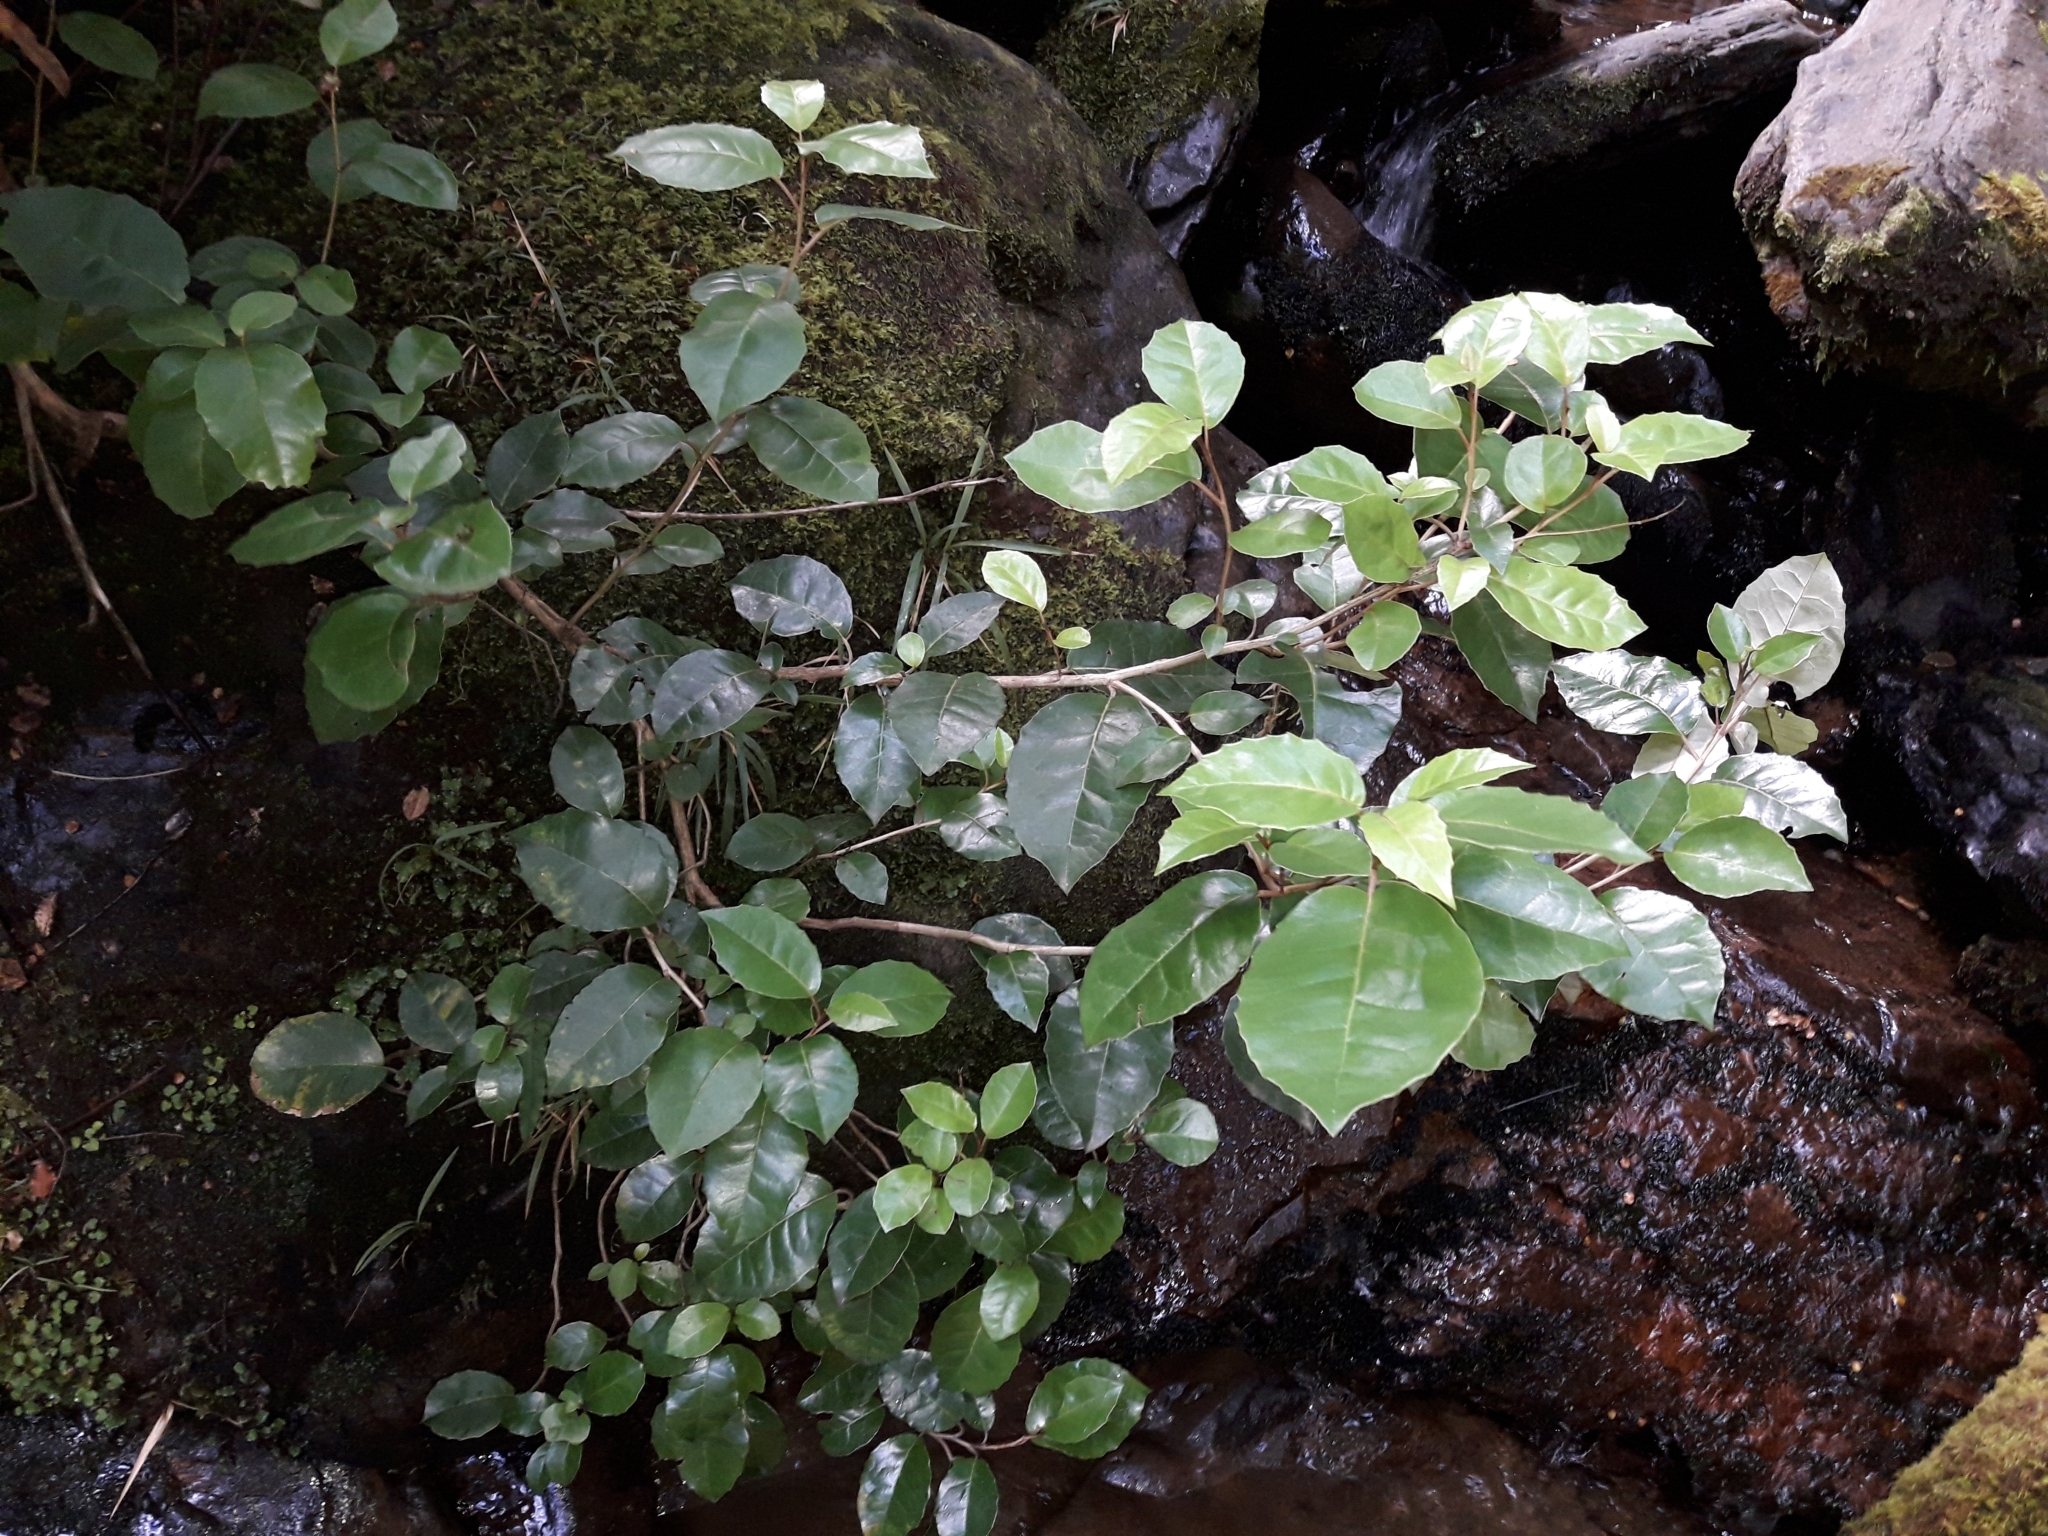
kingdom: Plantae
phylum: Tracheophyta
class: Magnoliopsida
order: Asterales
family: Asteraceae
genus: Olearia
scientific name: Olearia arborescens
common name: Glossy tree daisy
